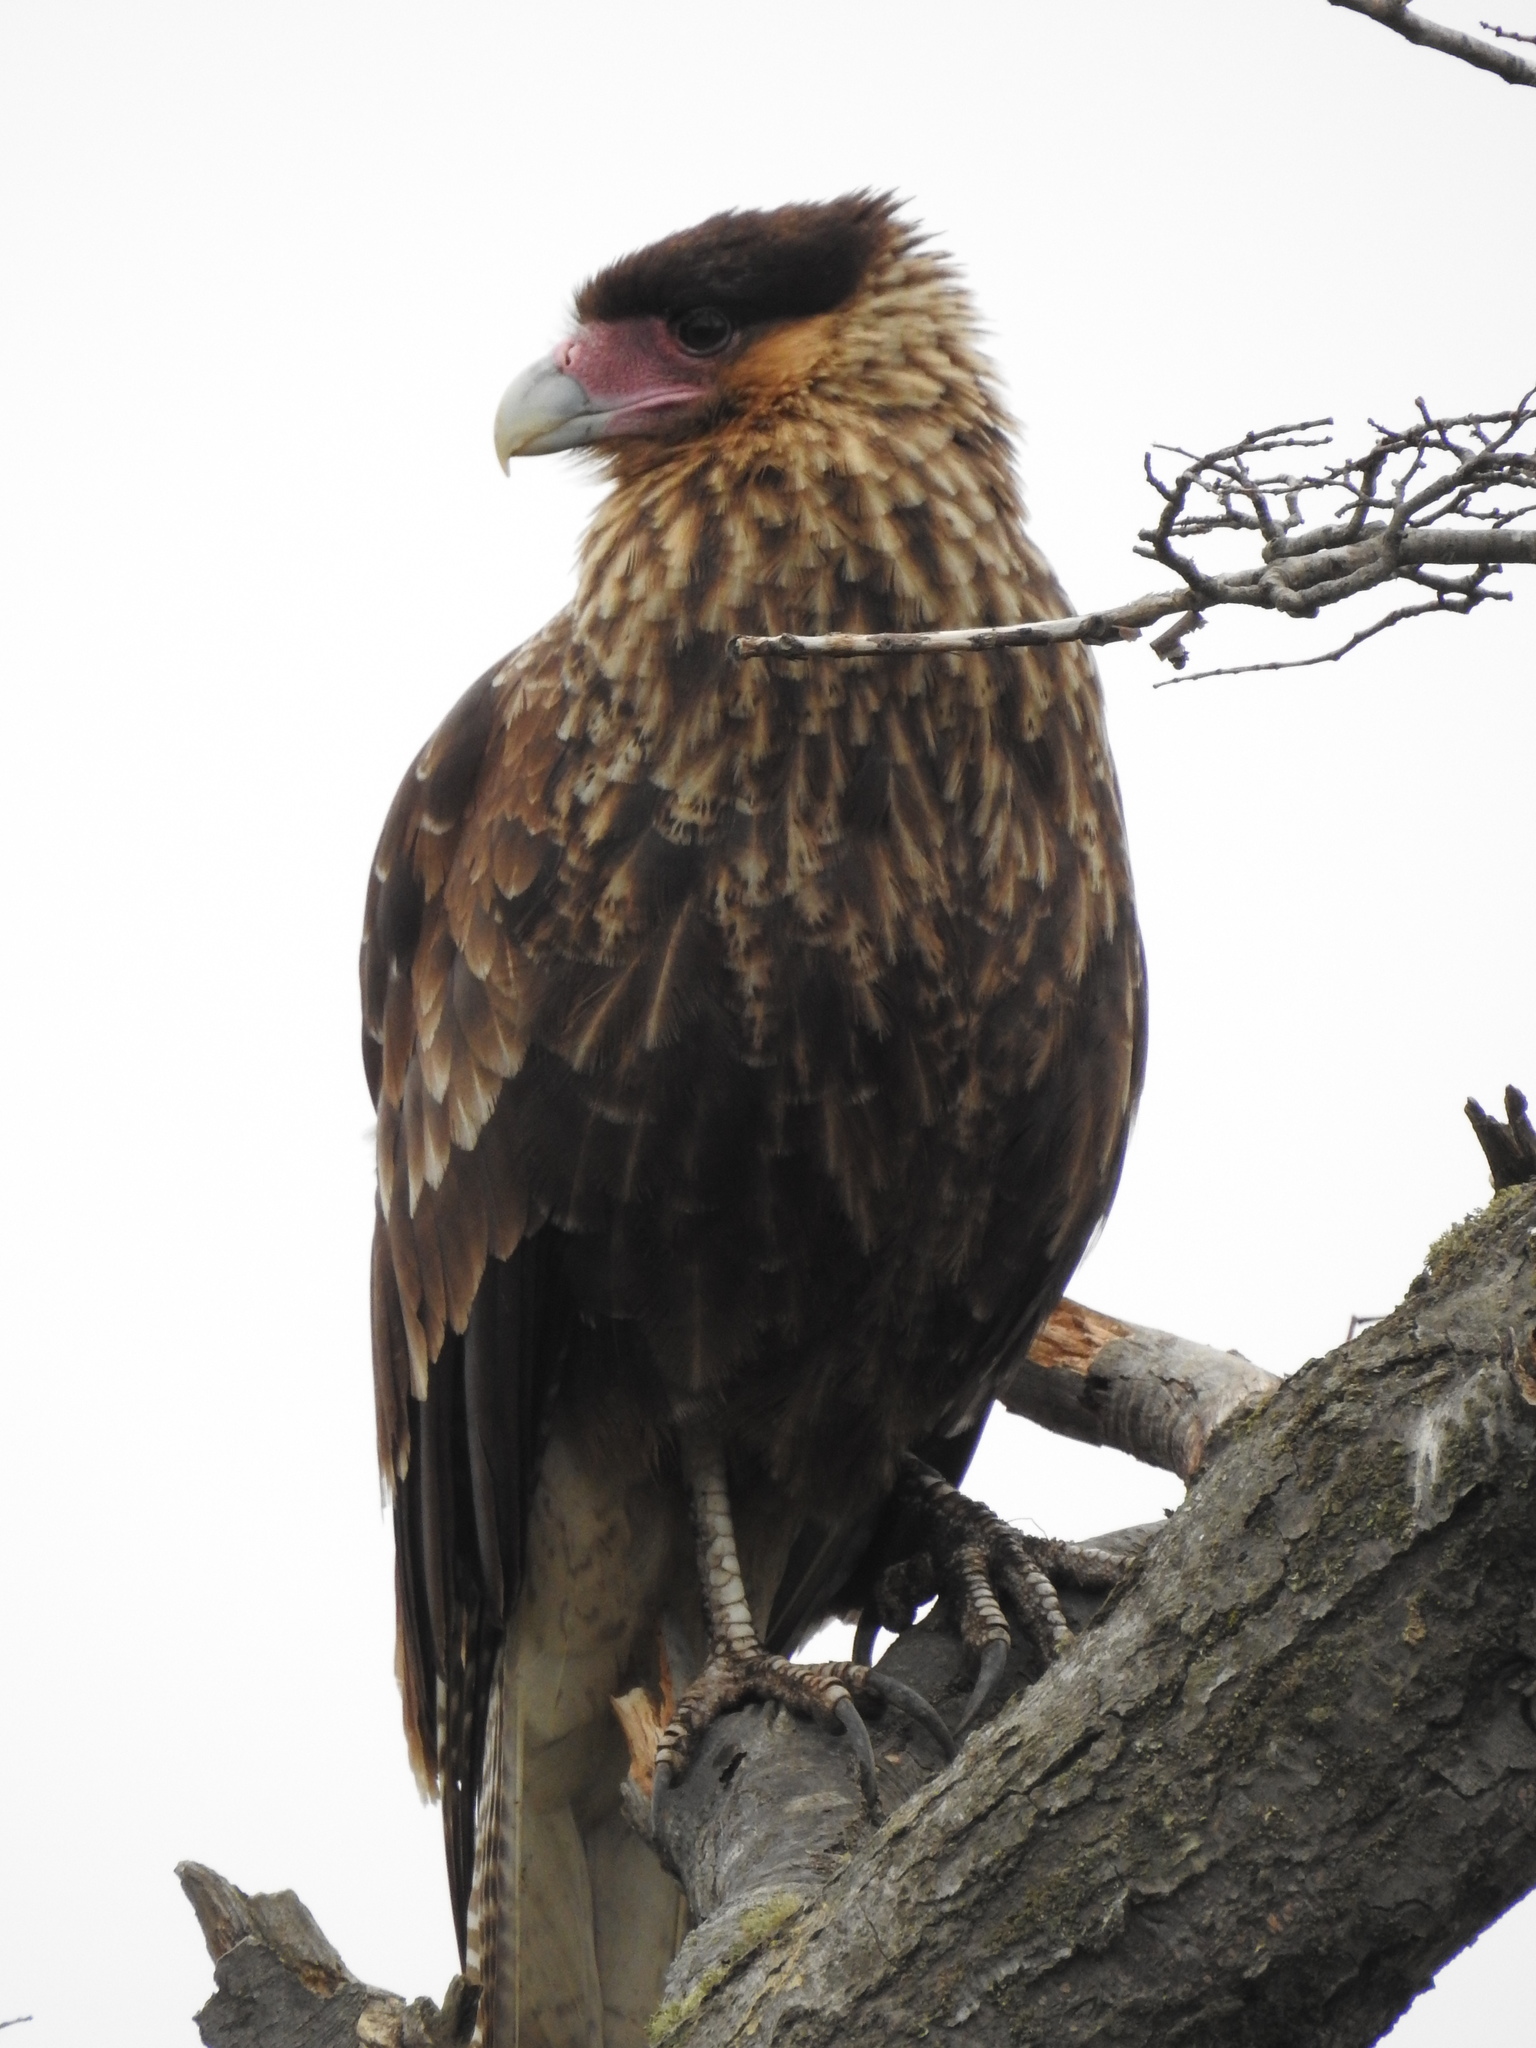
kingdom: Animalia
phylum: Chordata
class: Aves
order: Falconiformes
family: Falconidae
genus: Caracara
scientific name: Caracara plancus
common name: Southern caracara
